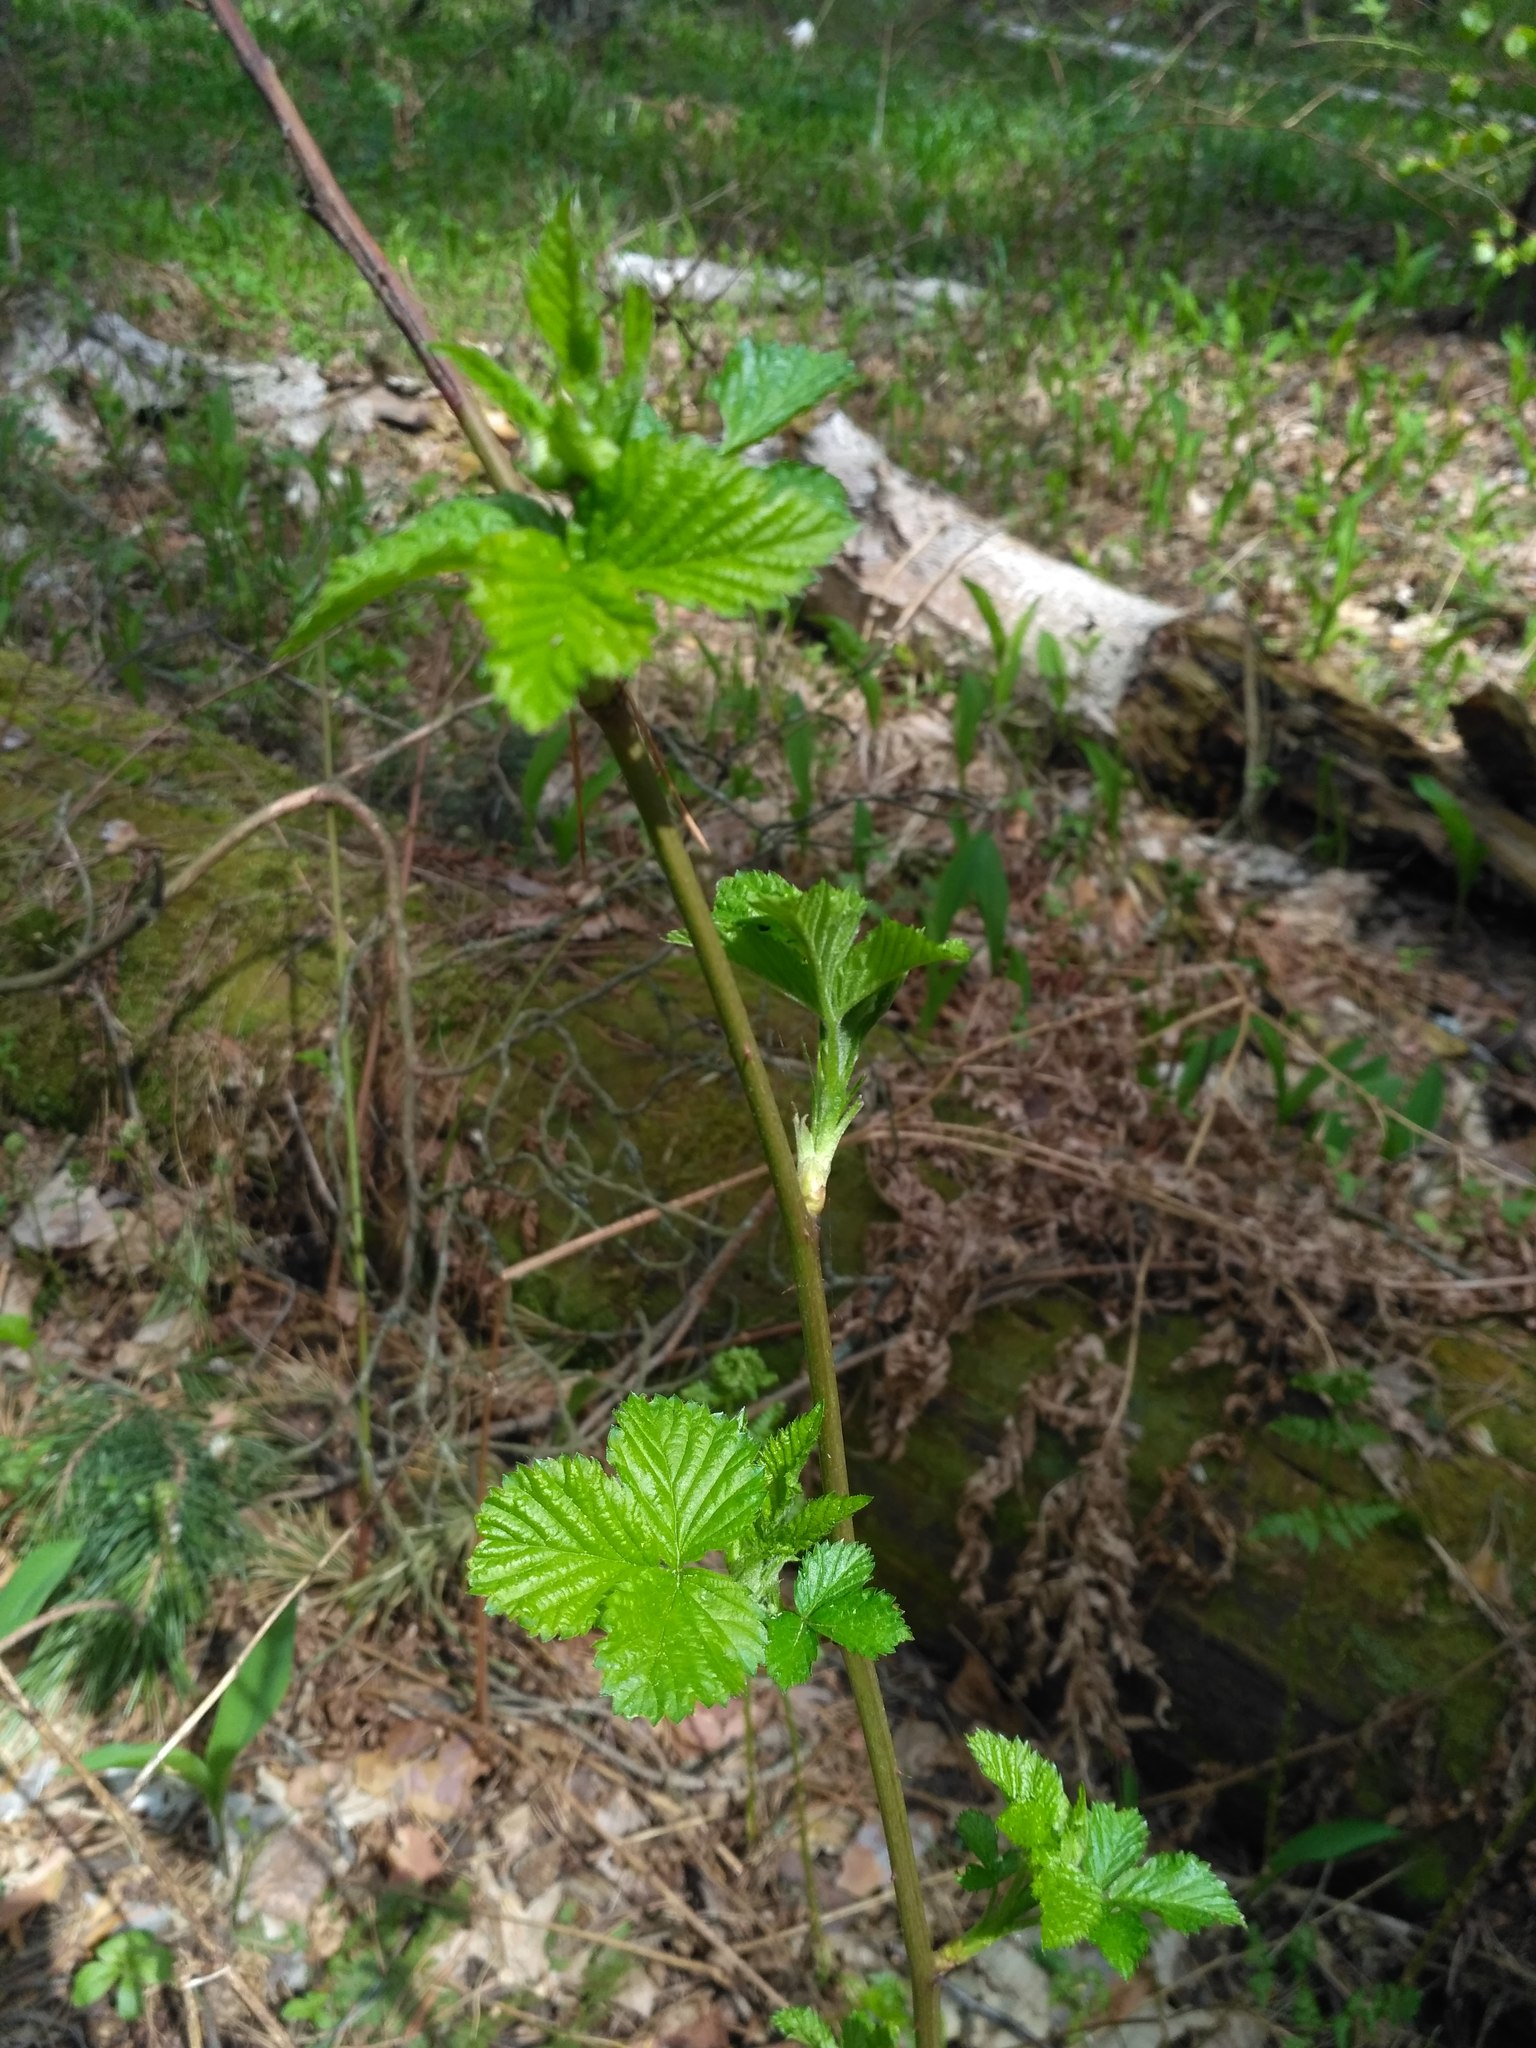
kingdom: Plantae
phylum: Tracheophyta
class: Magnoliopsida
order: Rosales
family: Rosaceae
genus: Rubus
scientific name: Rubus polonicus
